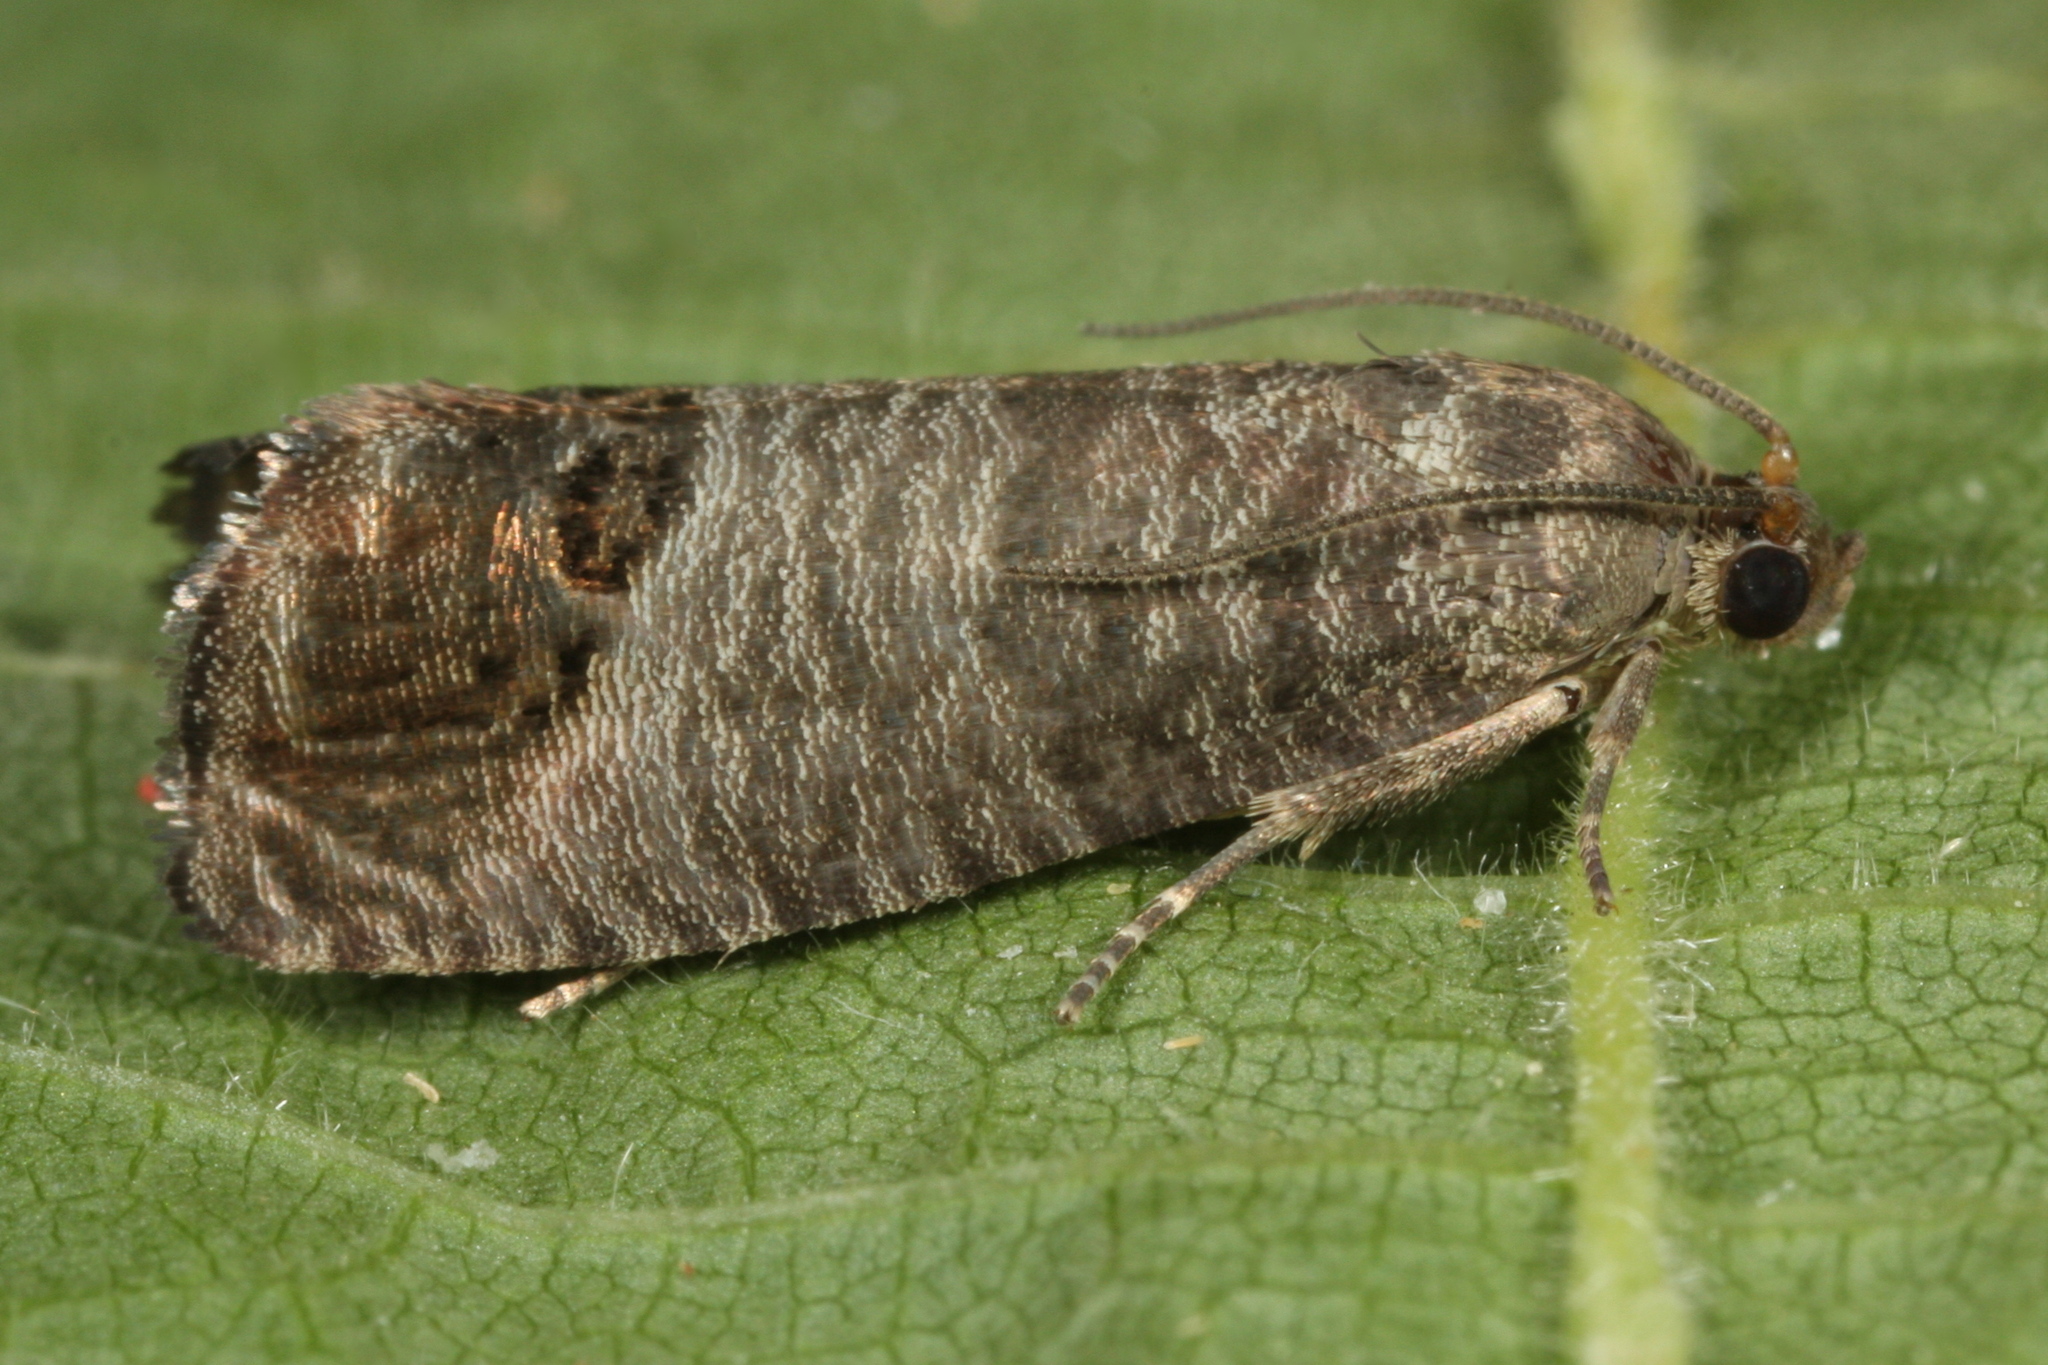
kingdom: Animalia
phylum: Arthropoda
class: Insecta
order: Lepidoptera
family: Tortricidae
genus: Cydia
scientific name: Cydia pomonella
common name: Codling moth
